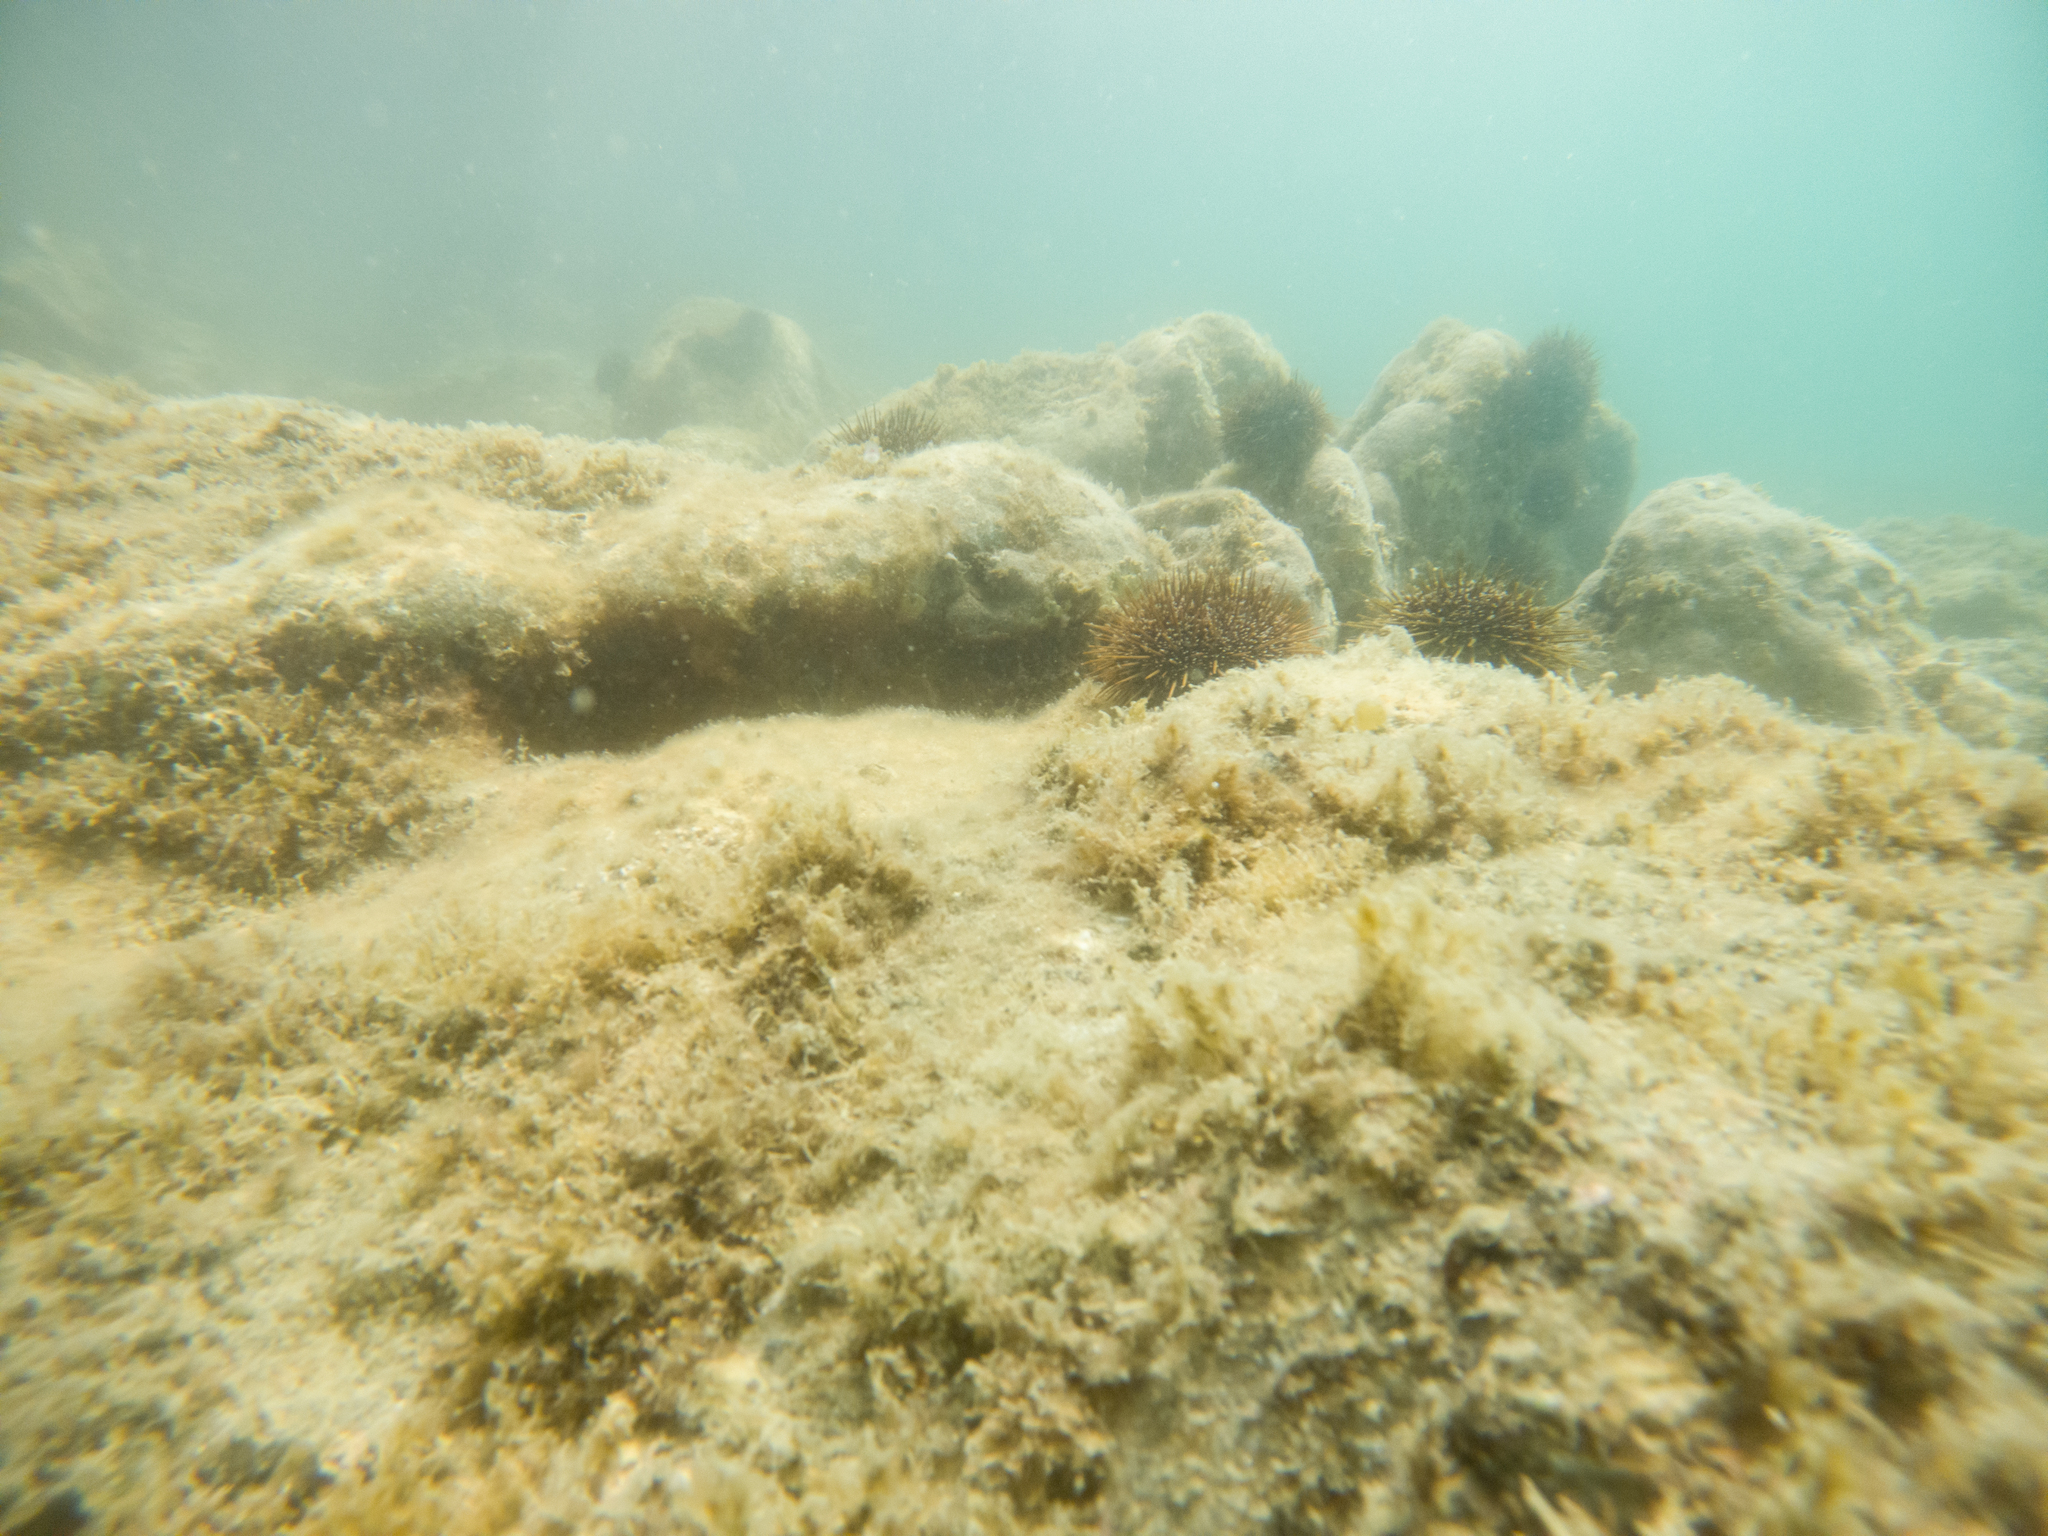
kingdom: Animalia
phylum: Echinodermata
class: Echinoidea
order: Camarodonta
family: Echinometridae
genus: Evechinus
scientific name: Evechinus chloroticus
